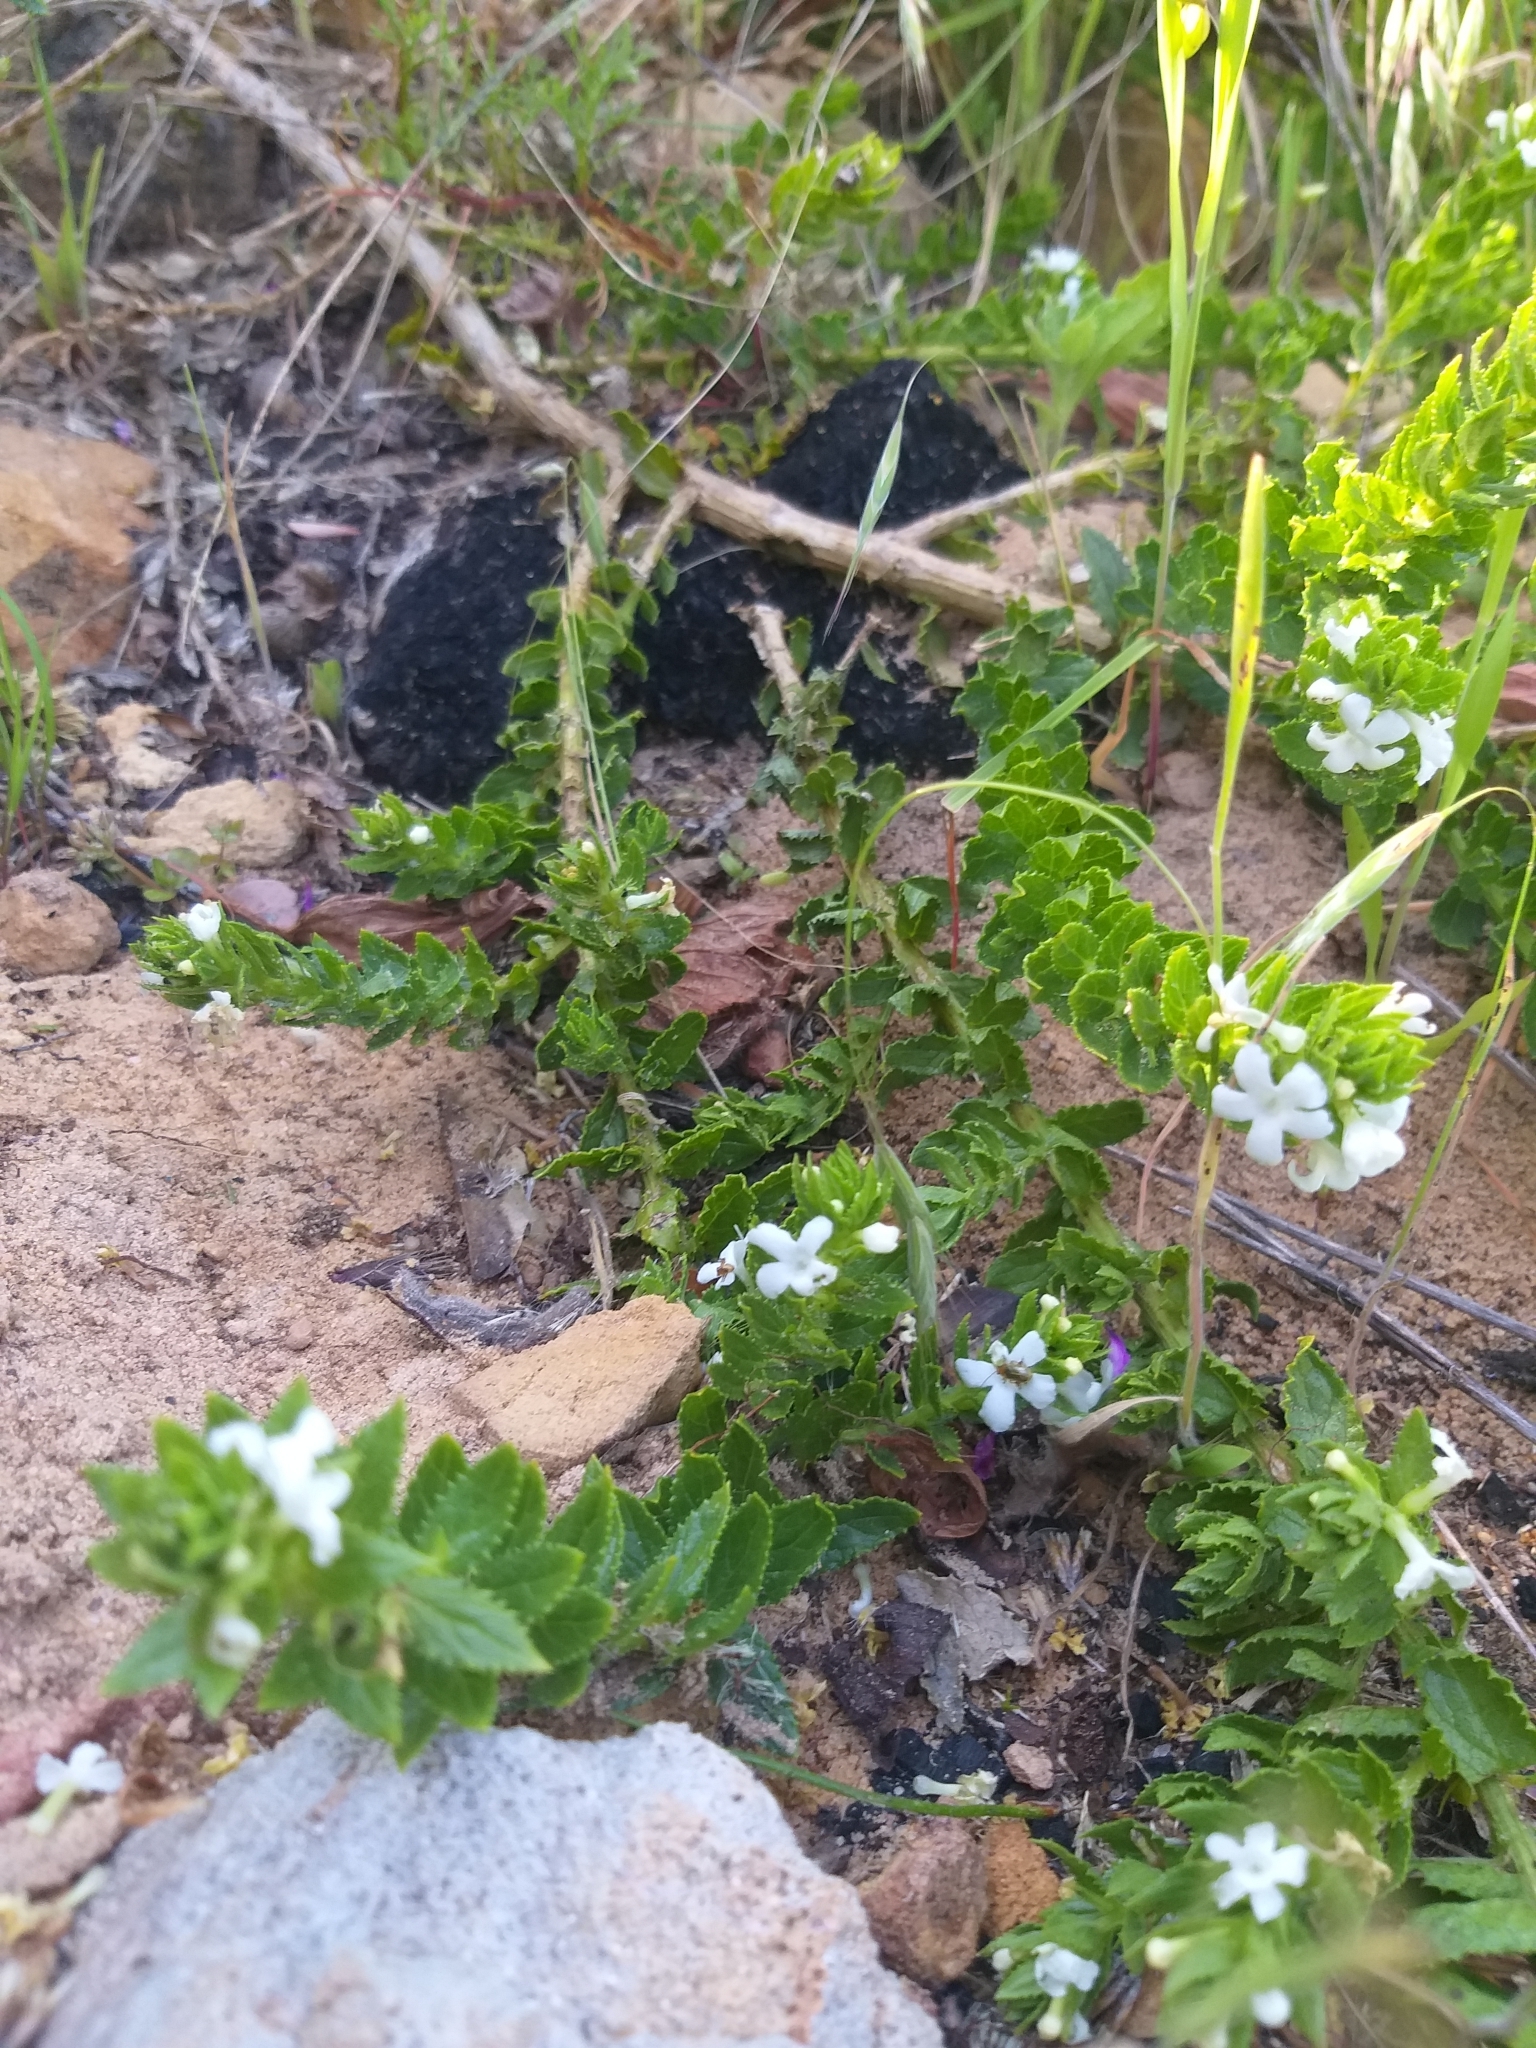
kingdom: Plantae
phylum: Tracheophyta
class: Magnoliopsida
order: Lamiales
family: Scrophulariaceae
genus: Oftia
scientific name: Oftia africana
